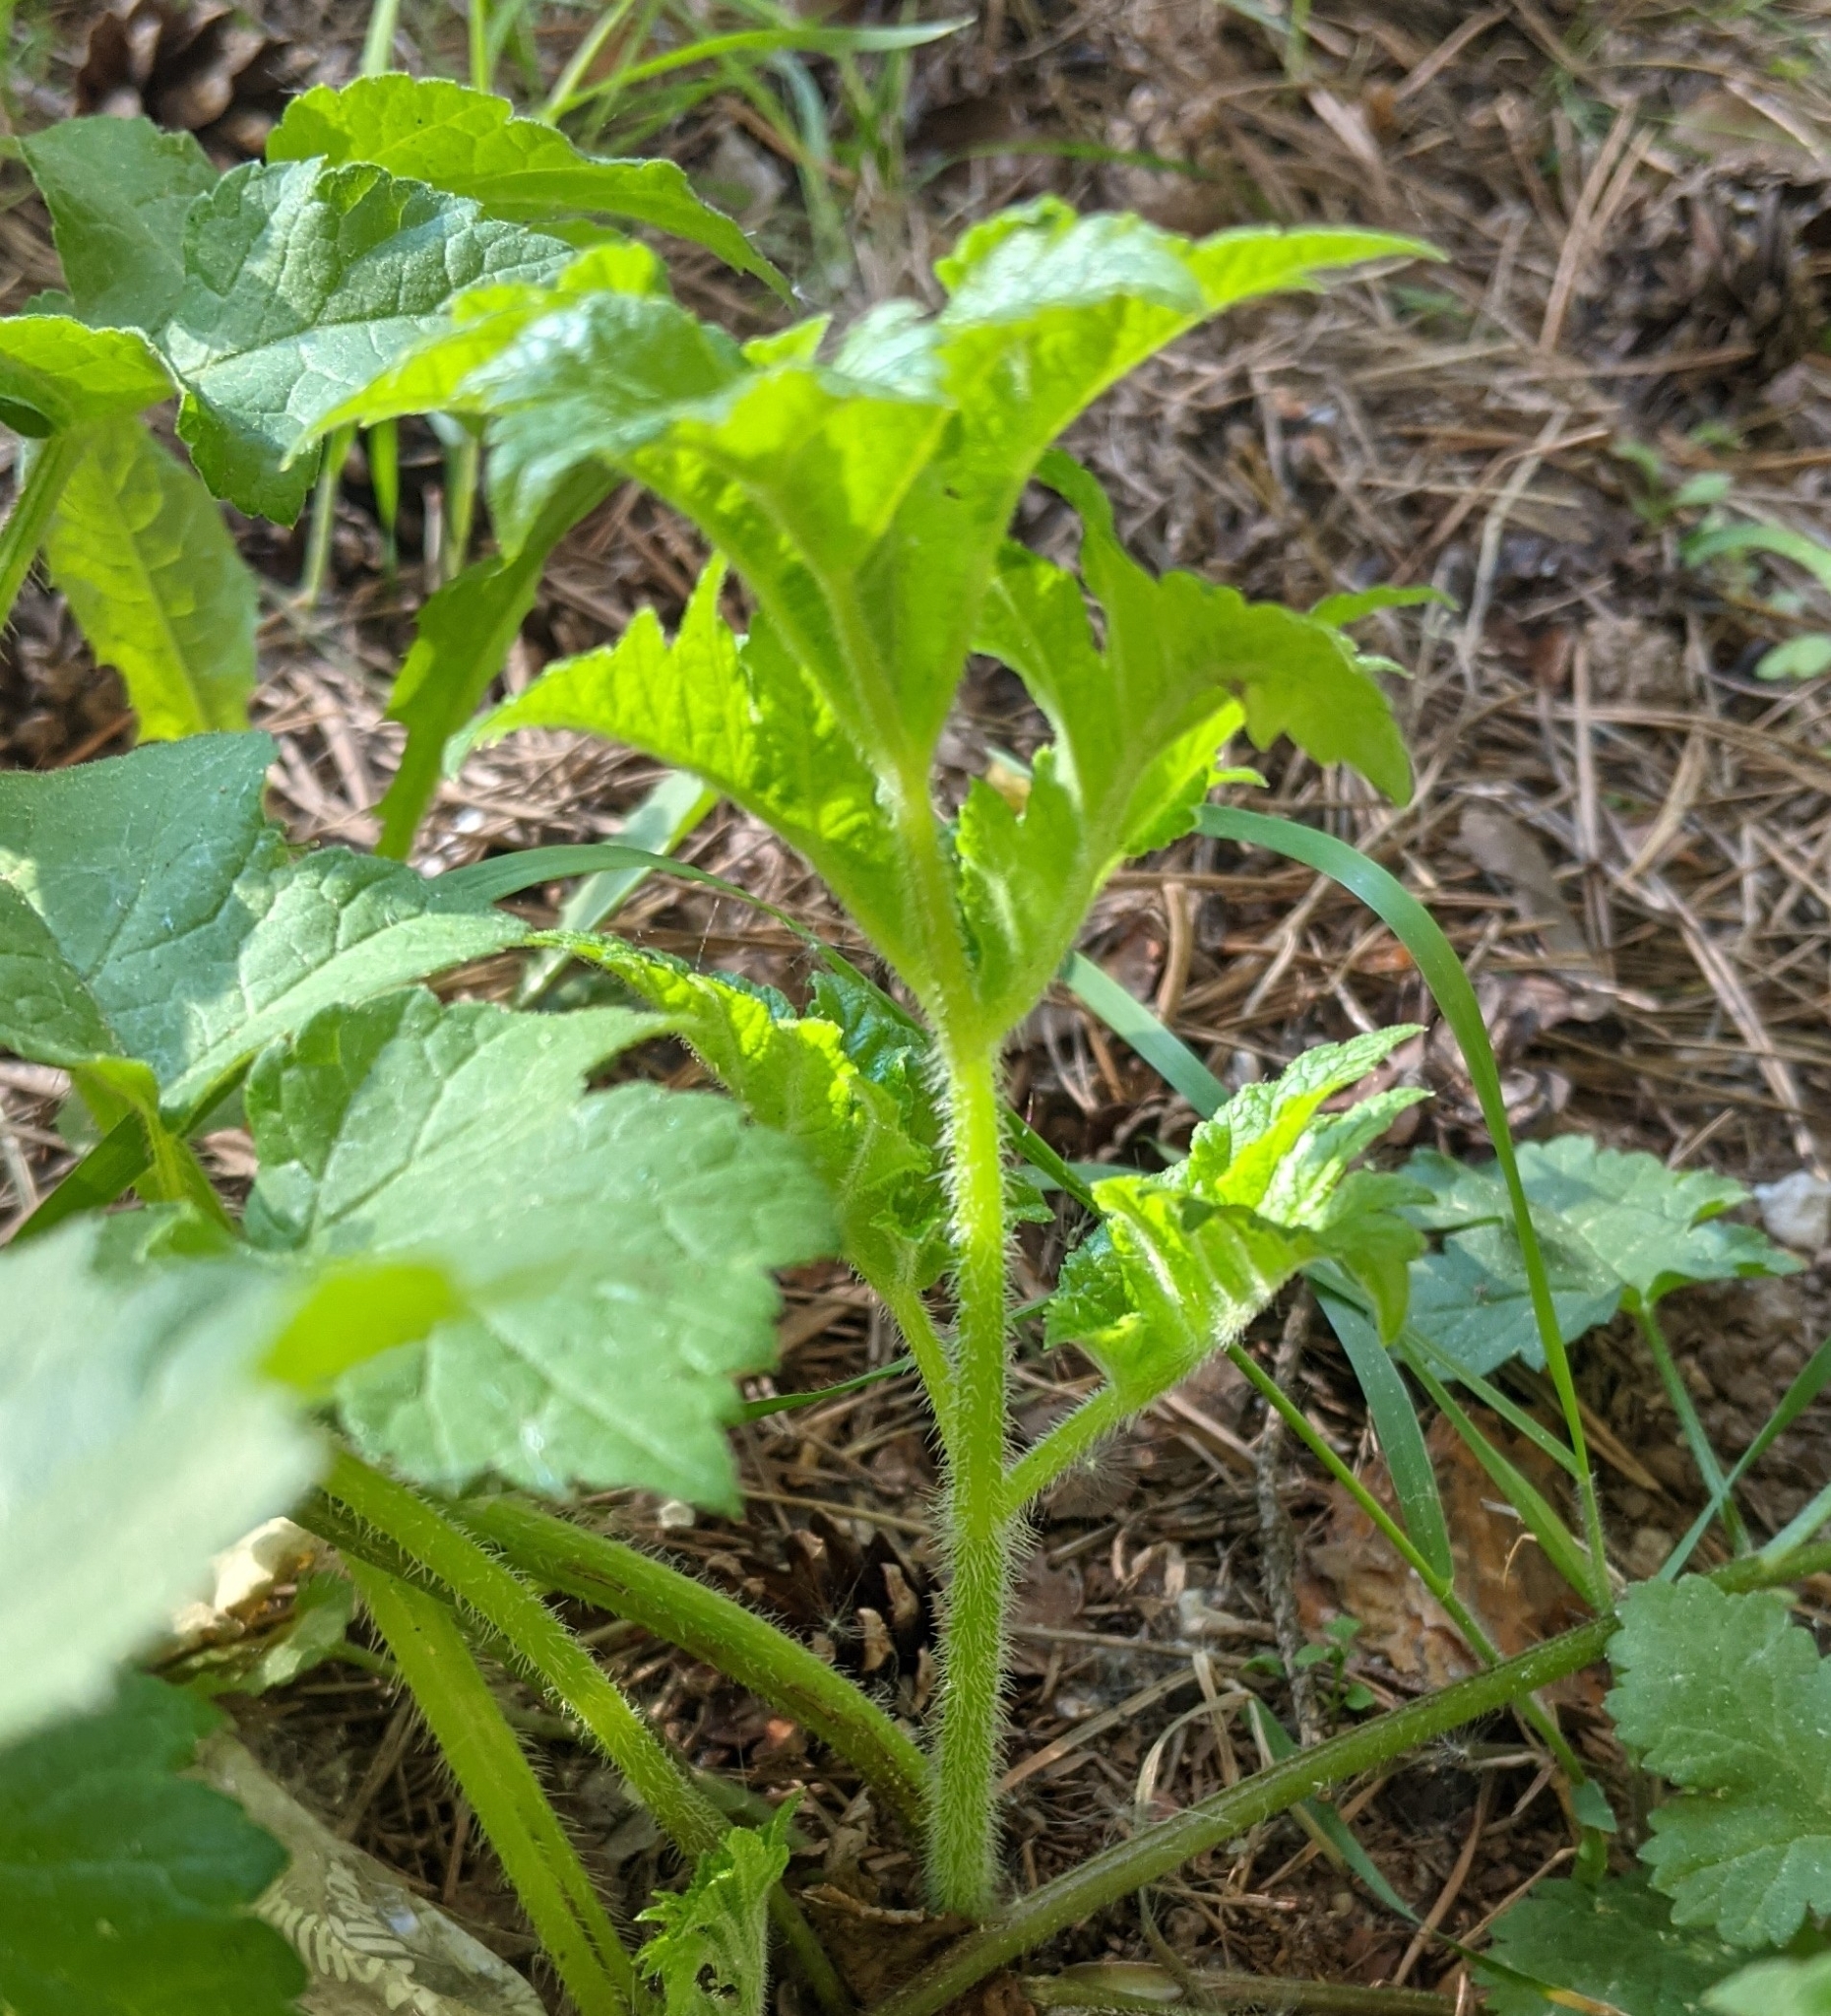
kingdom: Plantae
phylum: Tracheophyta
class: Magnoliopsida
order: Apiales
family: Apiaceae
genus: Heracleum
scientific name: Heracleum sphondylium
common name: Hogweed
